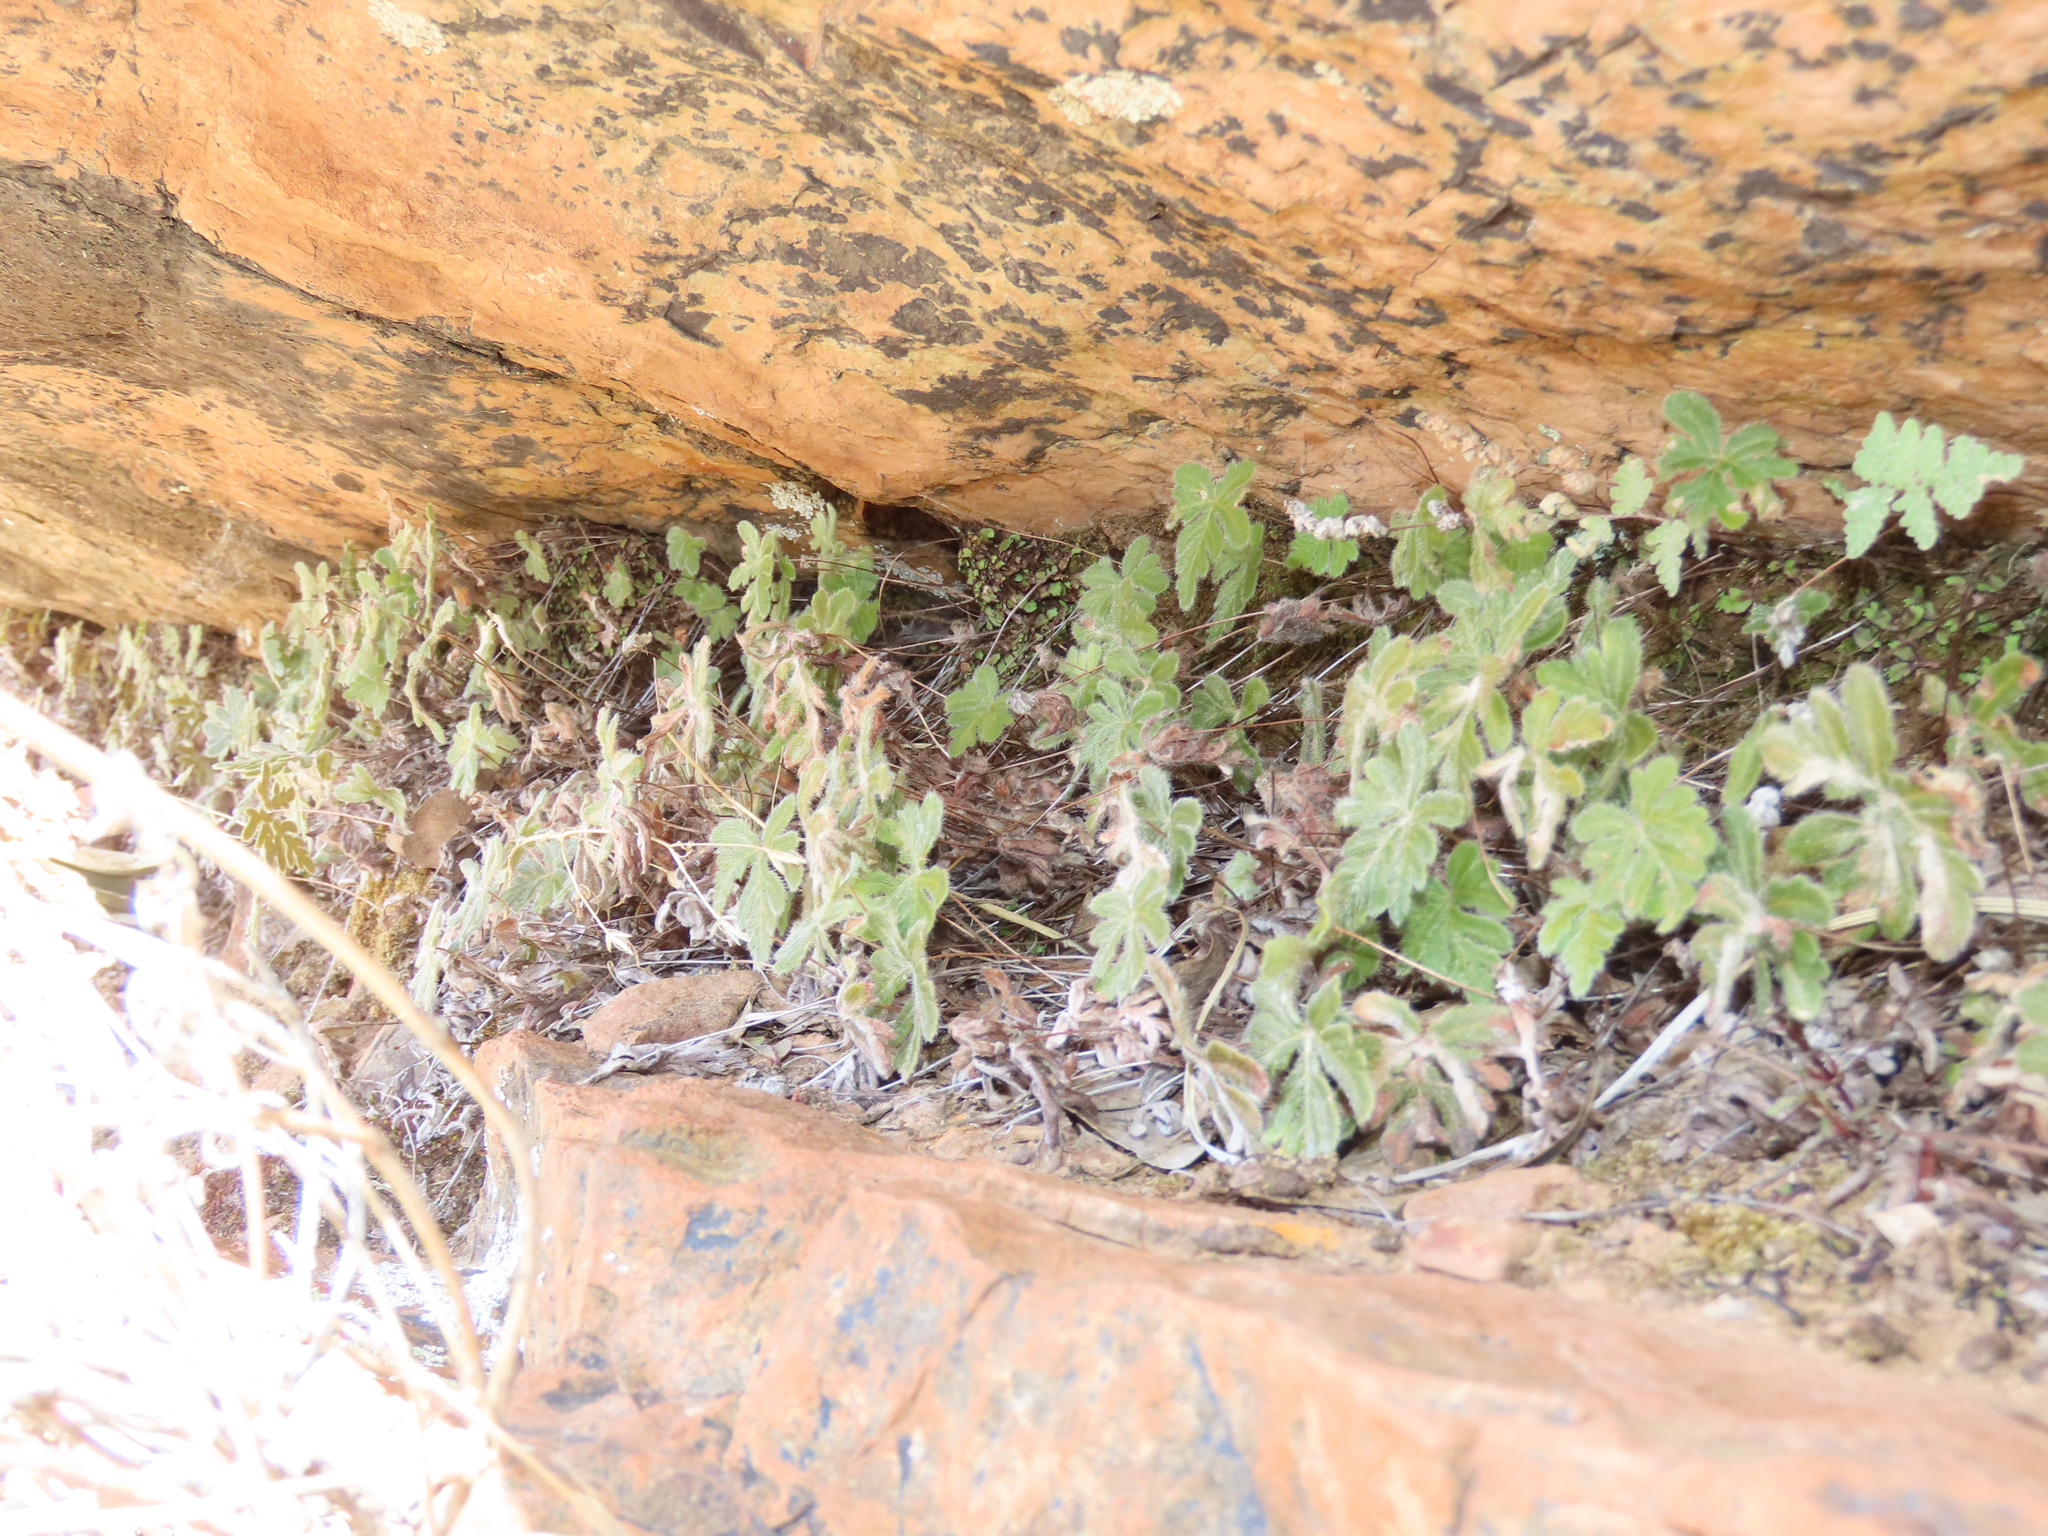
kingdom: Plantae
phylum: Tracheophyta
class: Polypodiopsida
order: Polypodiales
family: Pteridaceae
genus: Bommeria
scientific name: Bommeria hispida
